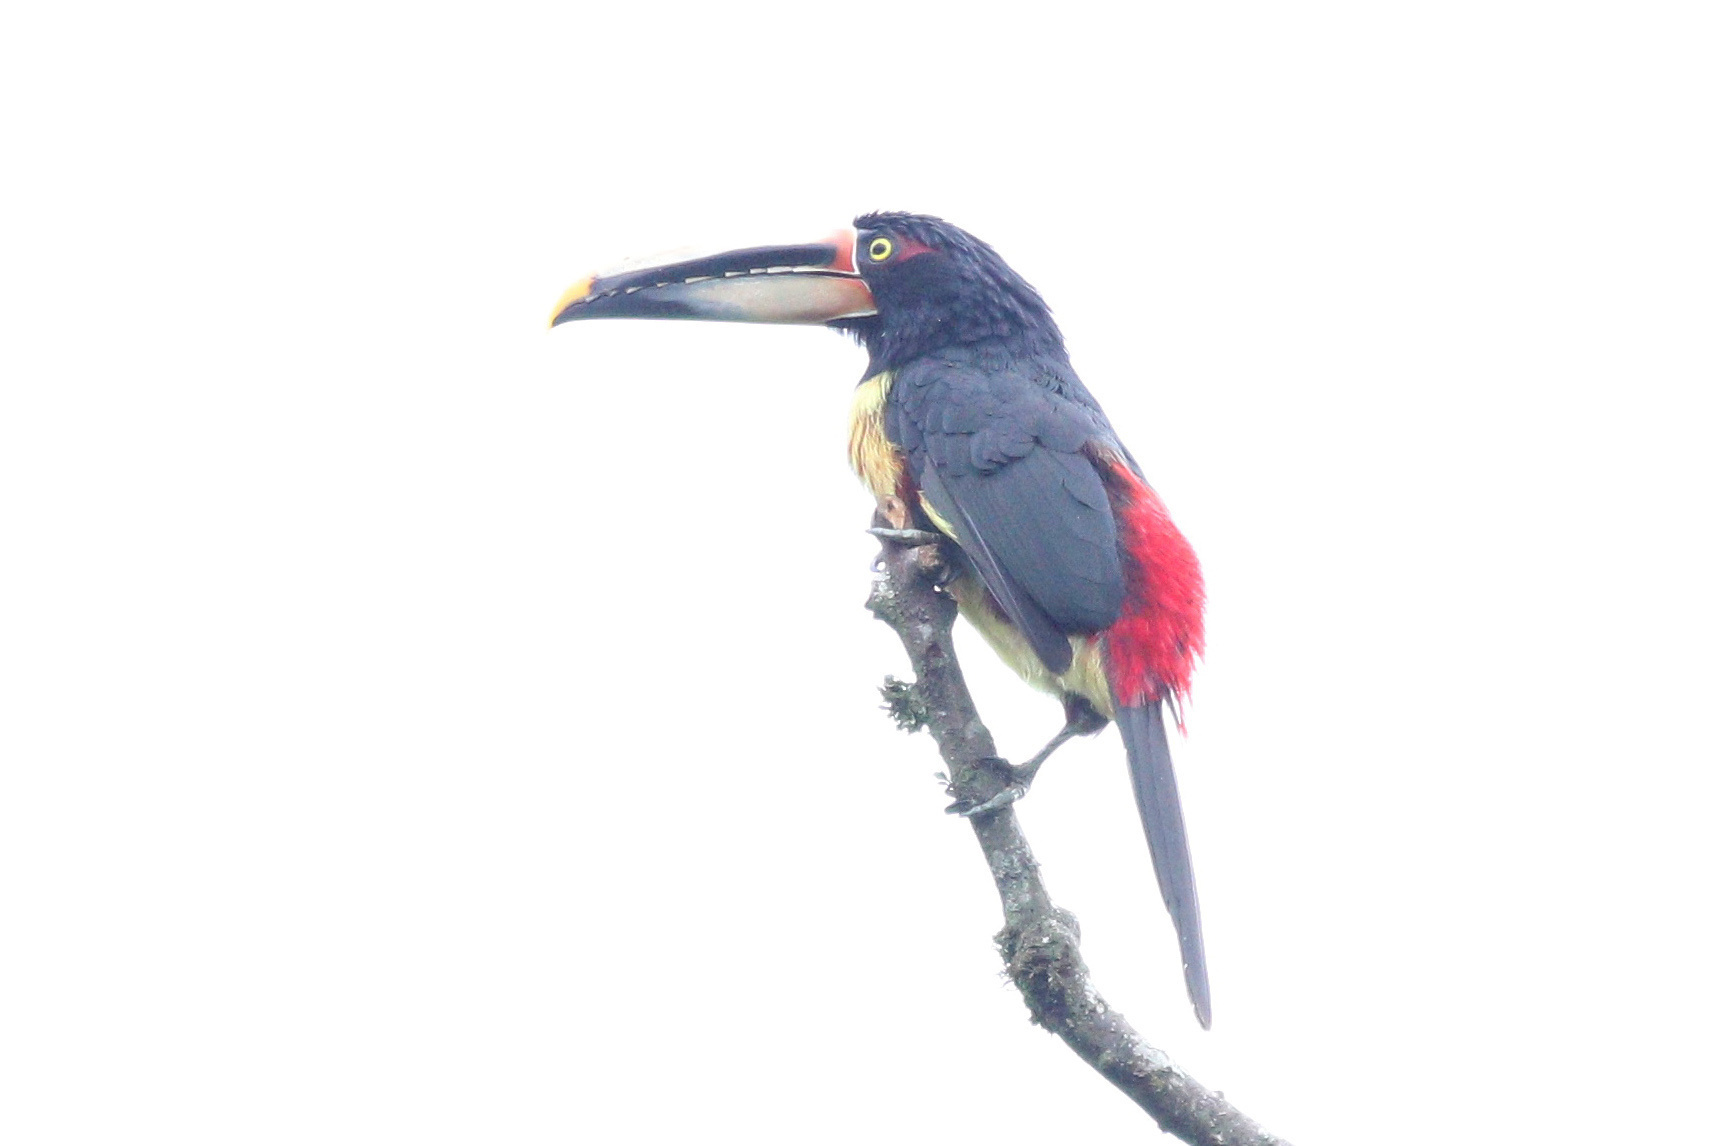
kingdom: Animalia
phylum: Chordata
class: Aves
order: Piciformes
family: Ramphastidae
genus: Pteroglossus
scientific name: Pteroglossus torquatus
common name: Collared aracari
